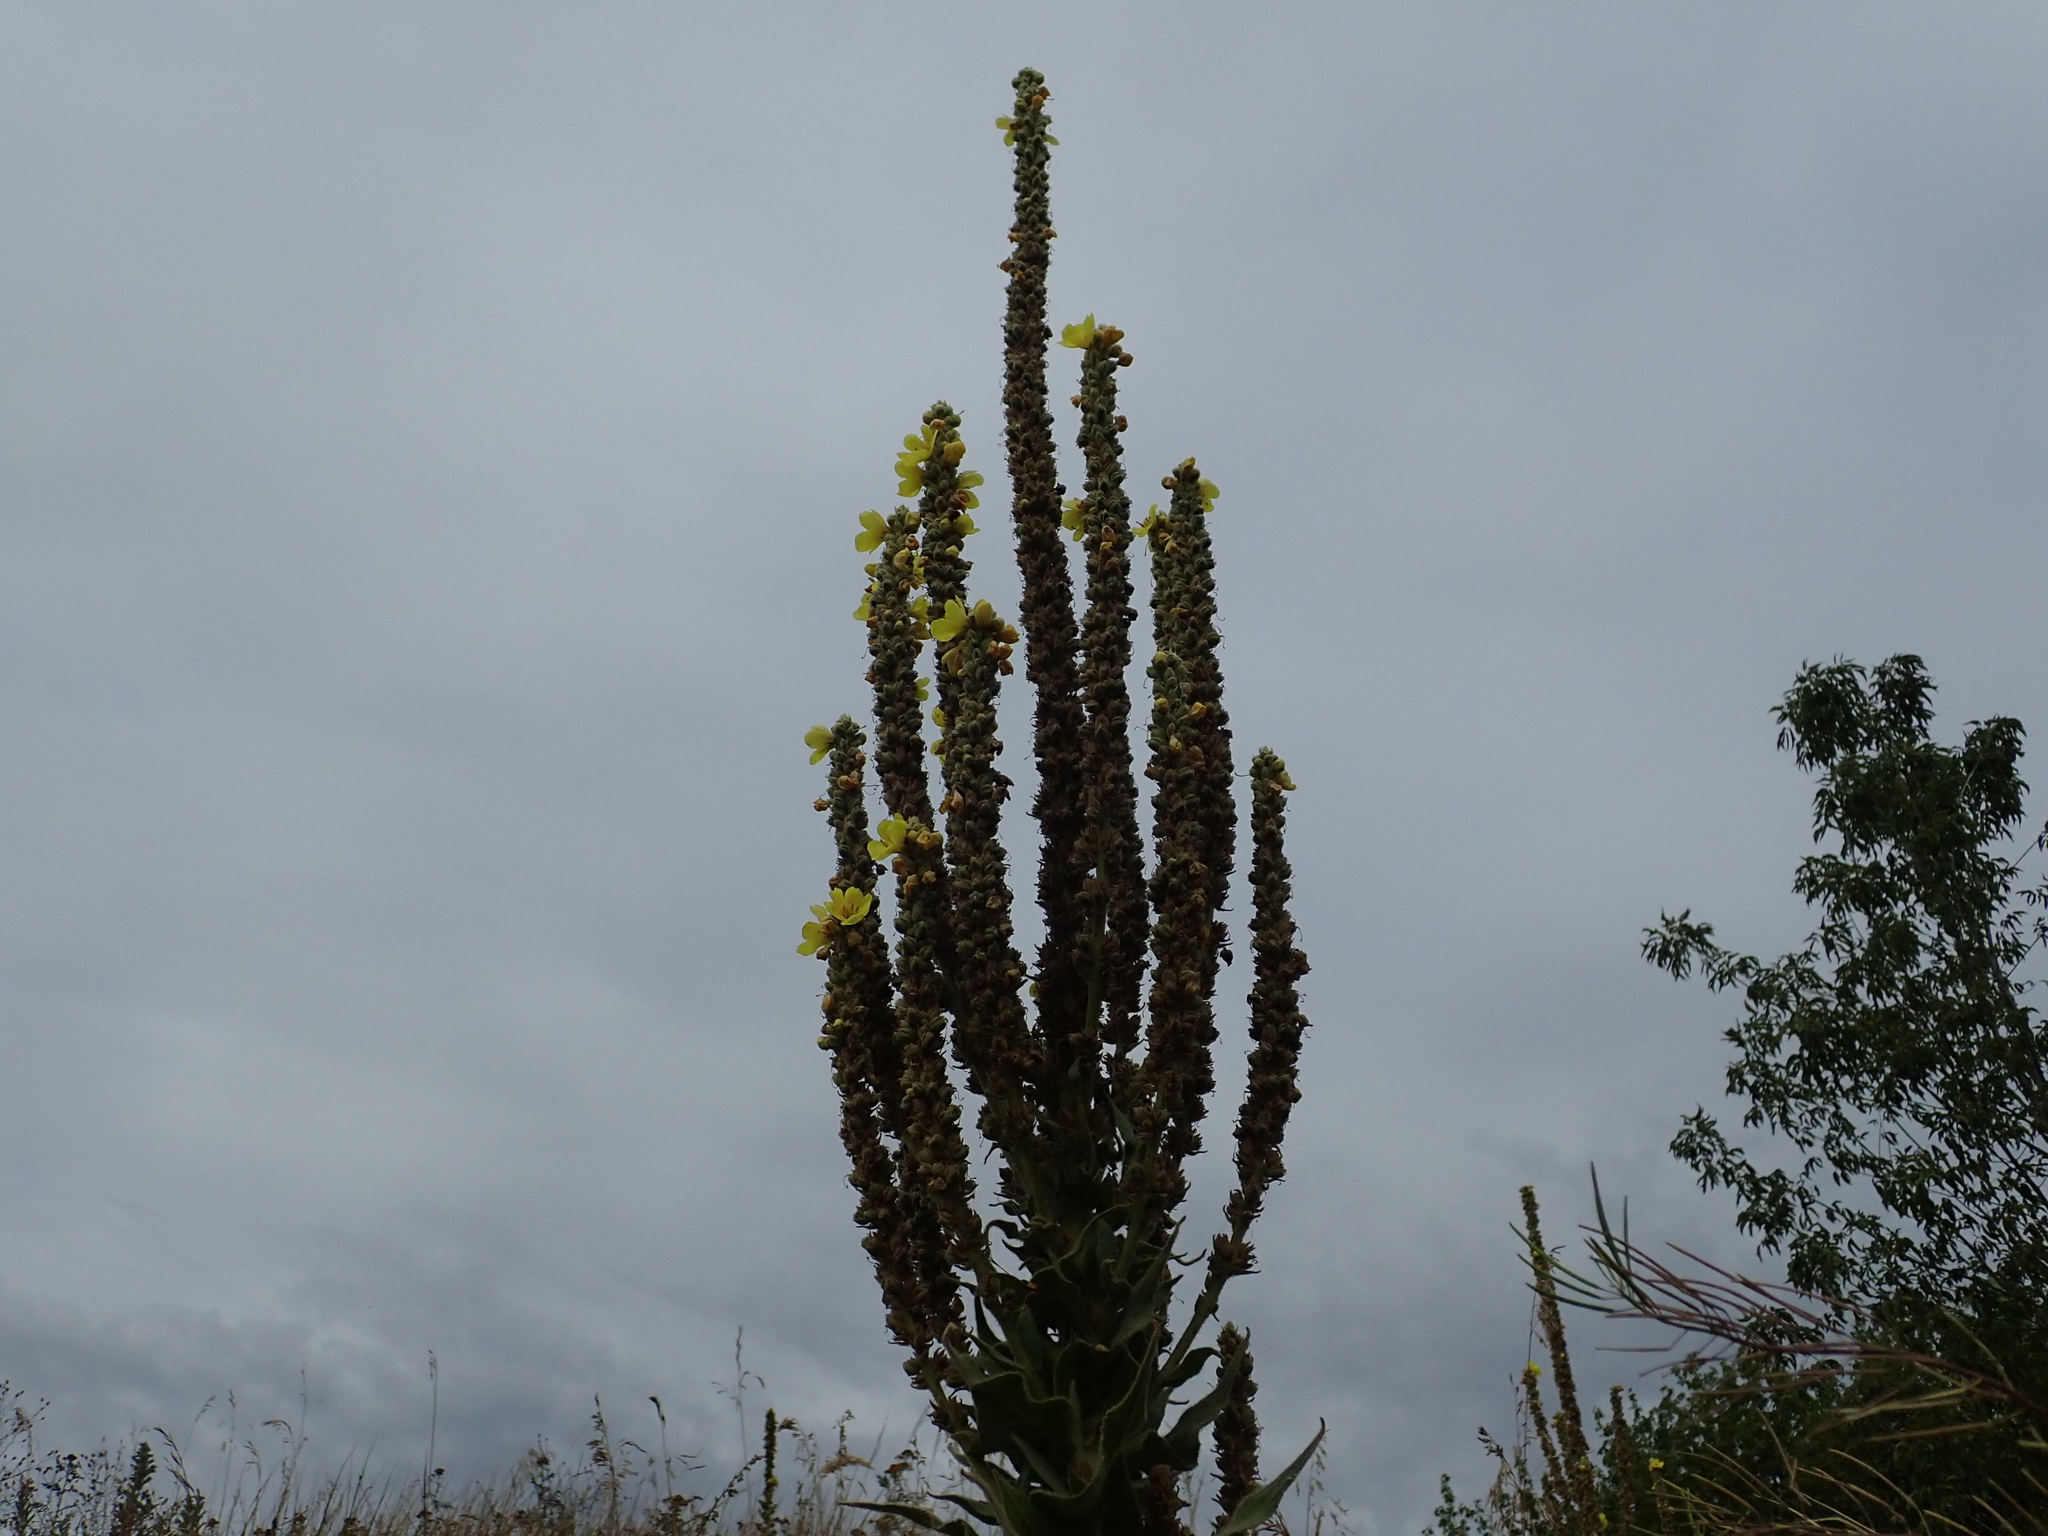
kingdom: Plantae
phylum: Tracheophyta
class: Magnoliopsida
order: Lamiales
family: Scrophulariaceae
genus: Verbascum
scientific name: Verbascum thapsus
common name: Common mullein
